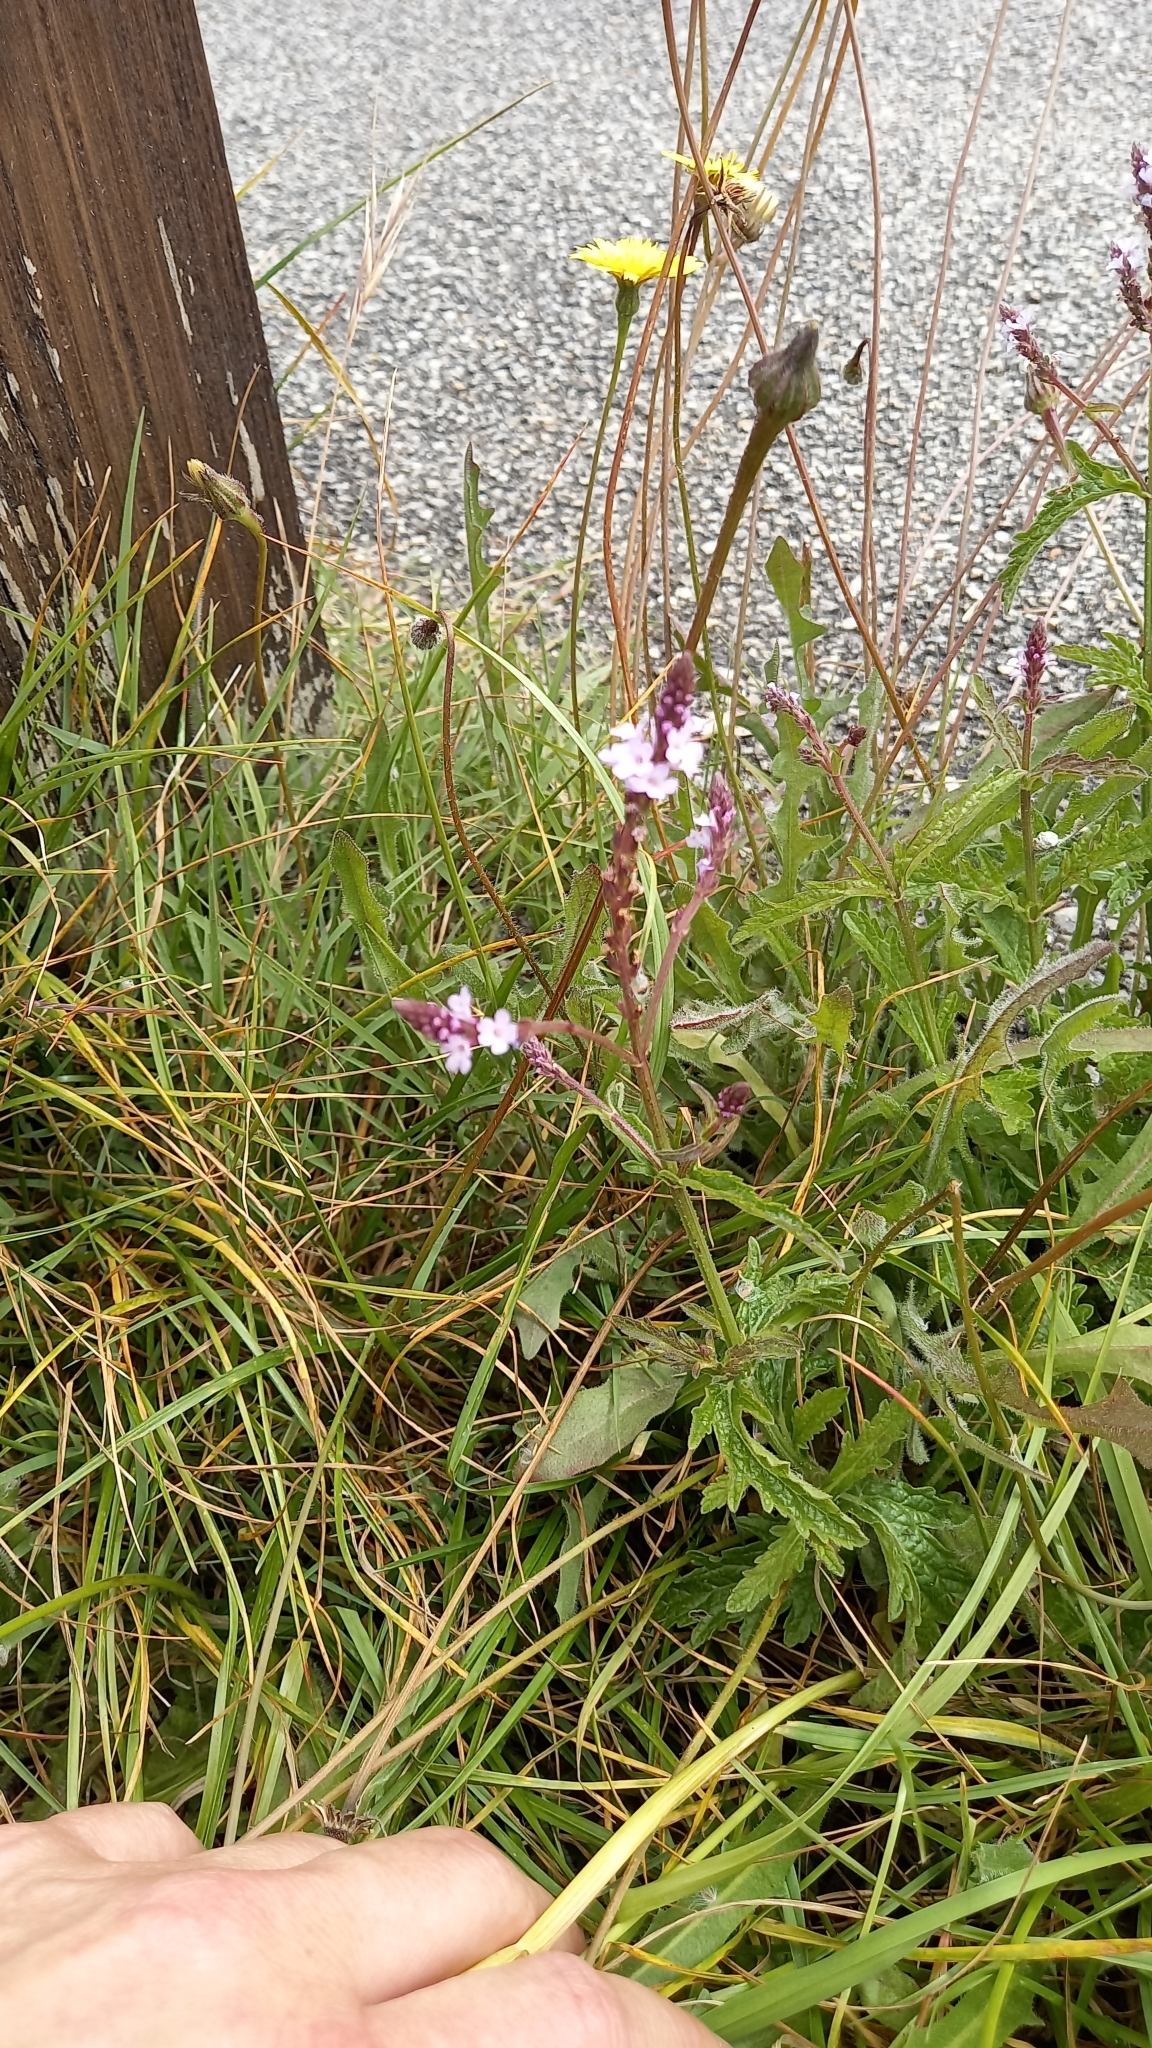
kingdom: Plantae
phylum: Tracheophyta
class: Magnoliopsida
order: Lamiales
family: Verbenaceae
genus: Verbena
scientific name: Verbena officinalis
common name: Vervain
